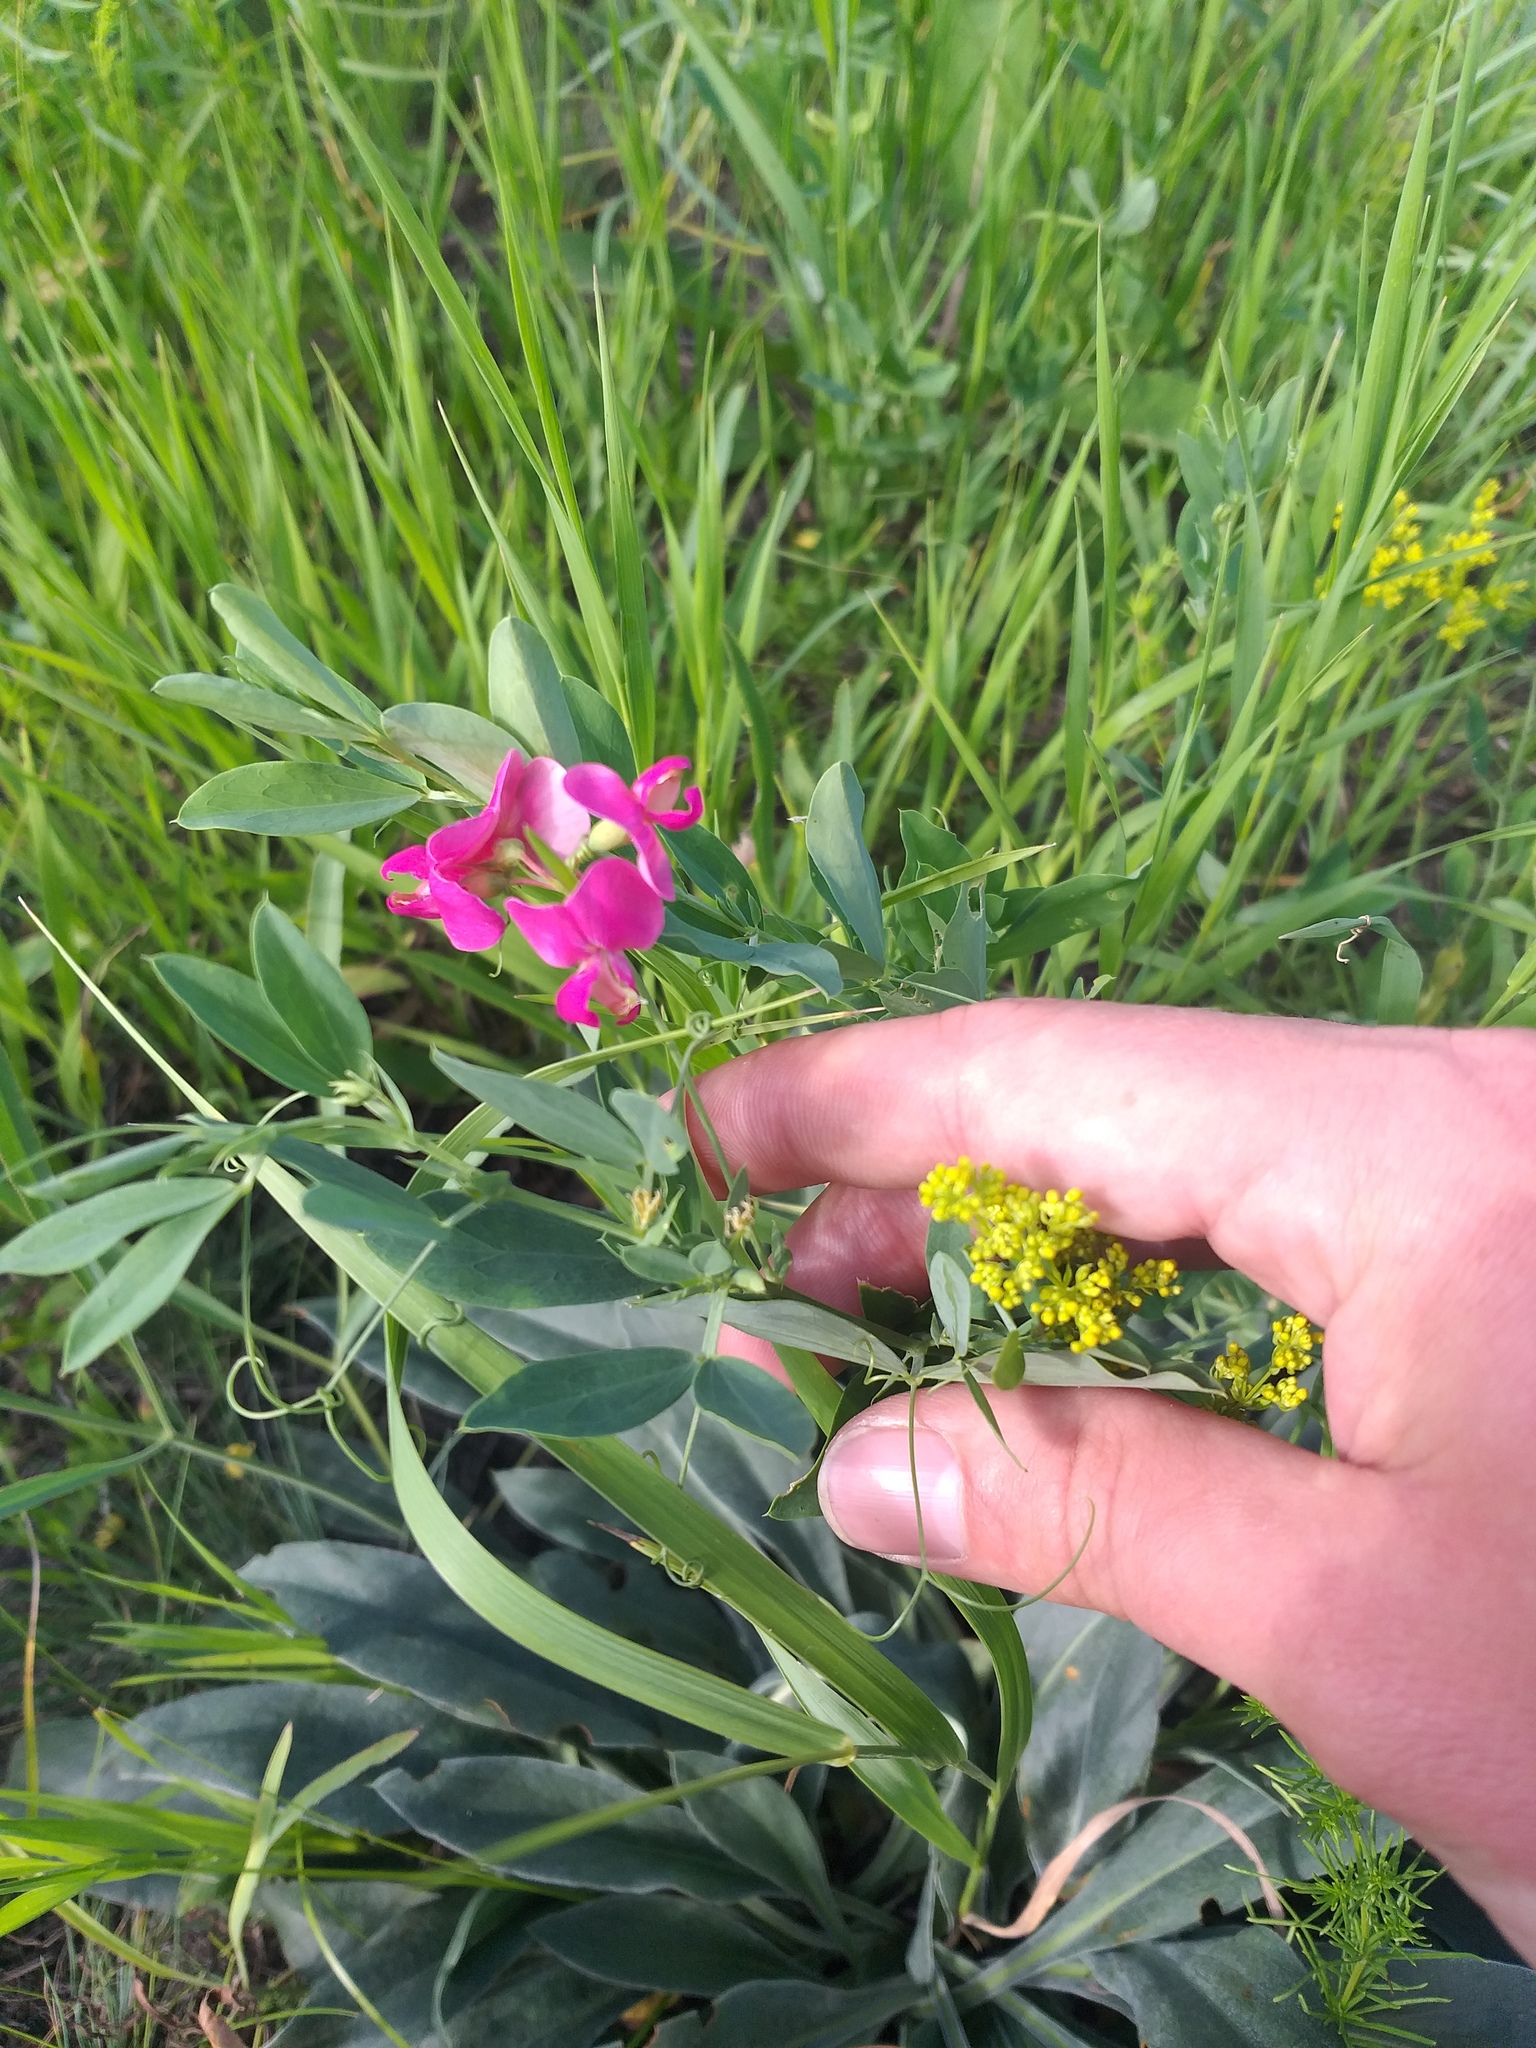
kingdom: Plantae
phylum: Tracheophyta
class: Magnoliopsida
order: Fabales
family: Fabaceae
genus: Lathyrus
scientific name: Lathyrus tuberosus
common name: Tuberous pea
